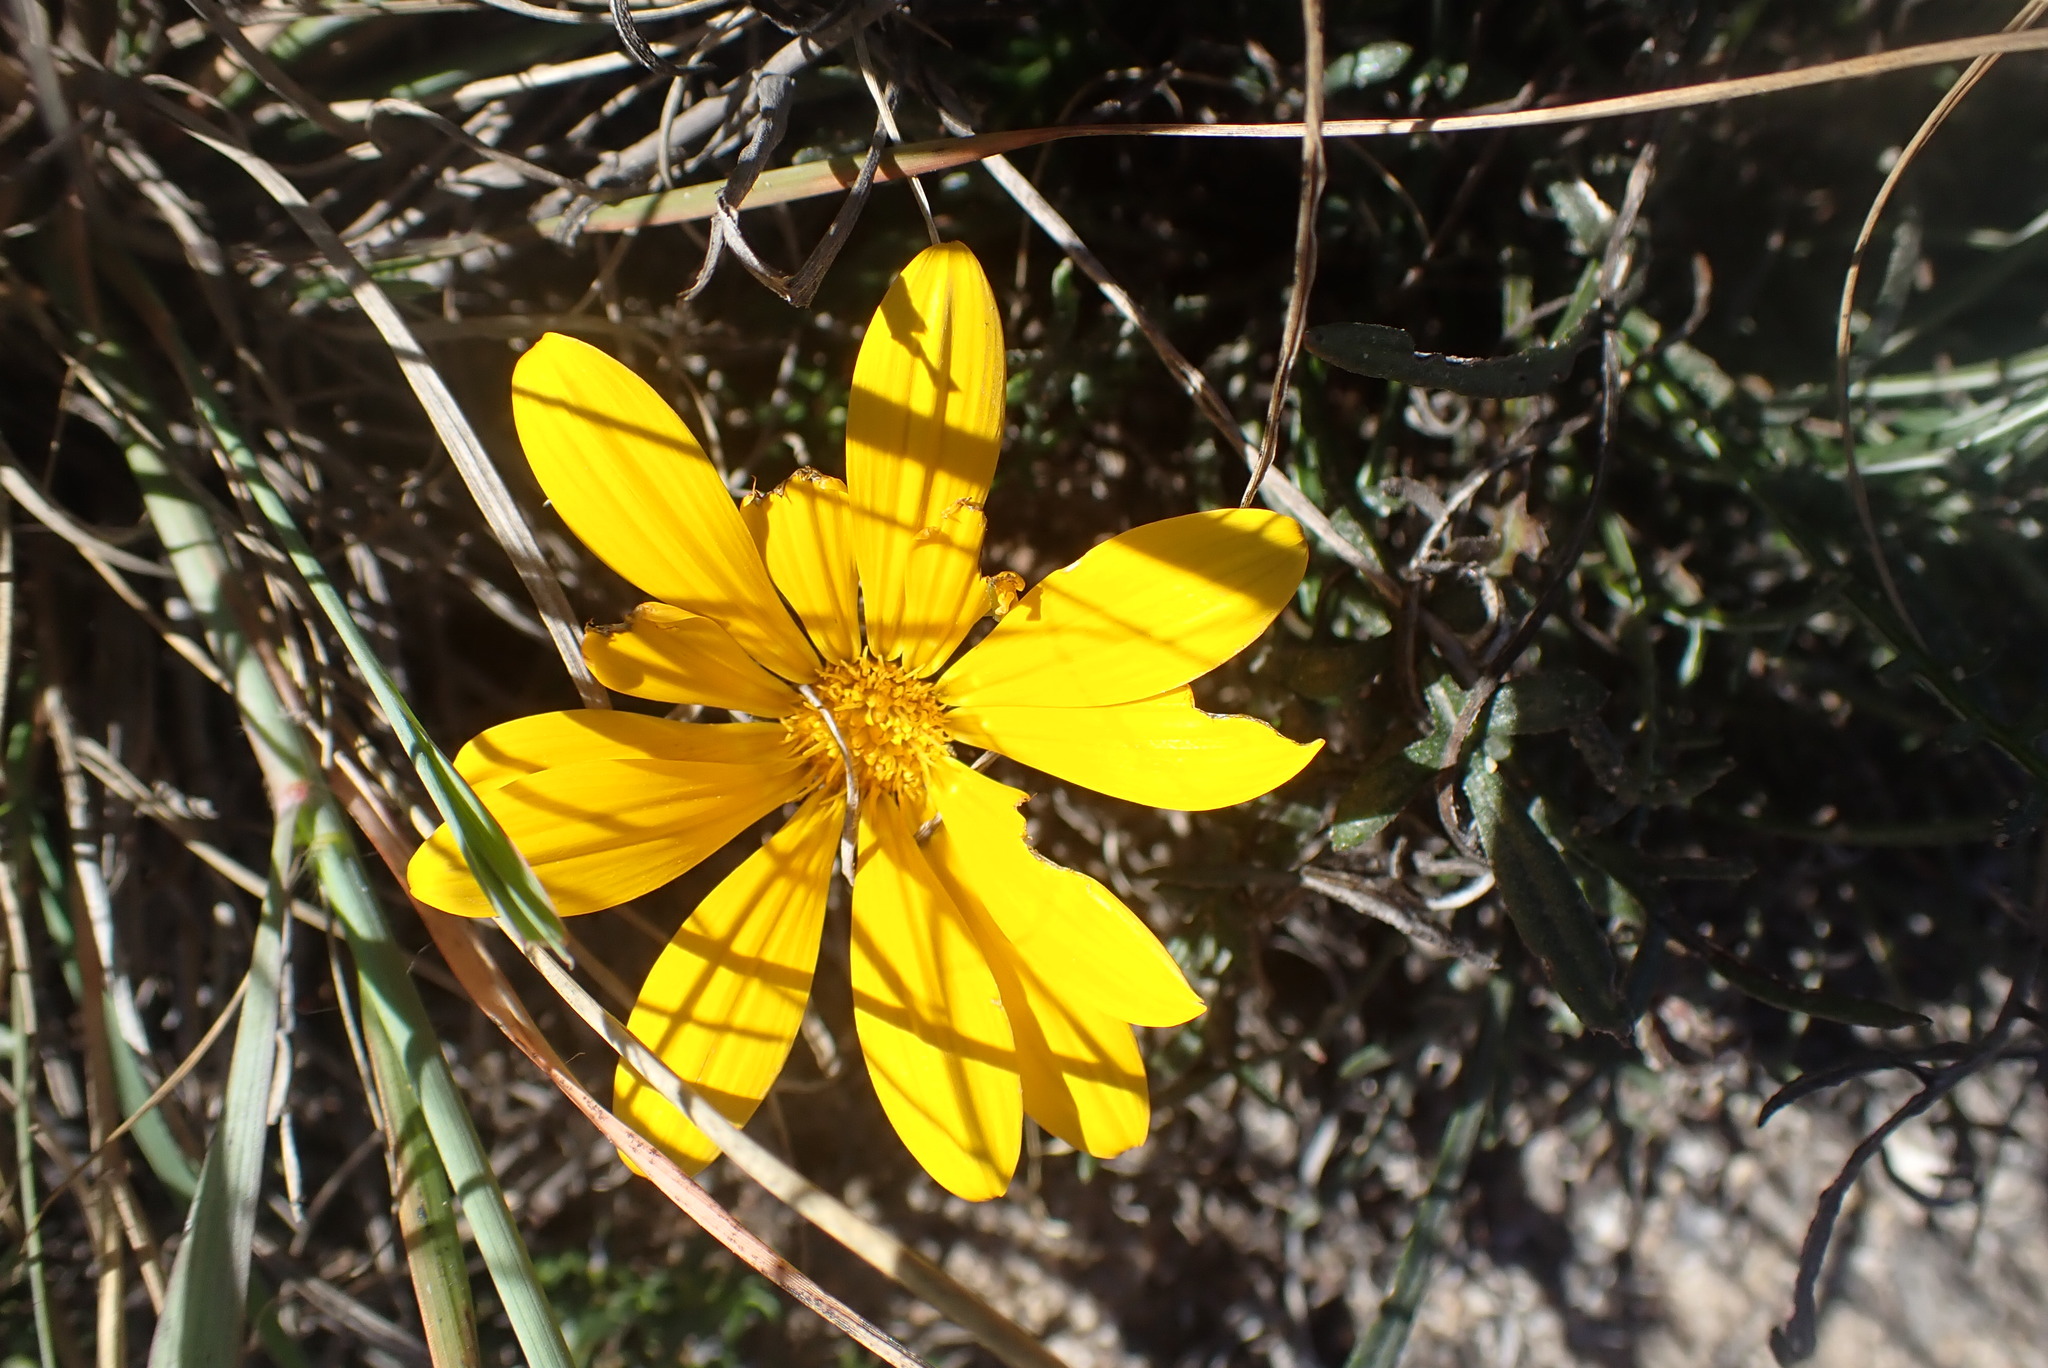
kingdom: Plantae
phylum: Tracheophyta
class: Magnoliopsida
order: Asterales
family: Asteraceae
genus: Gazania
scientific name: Gazania krebsiana
